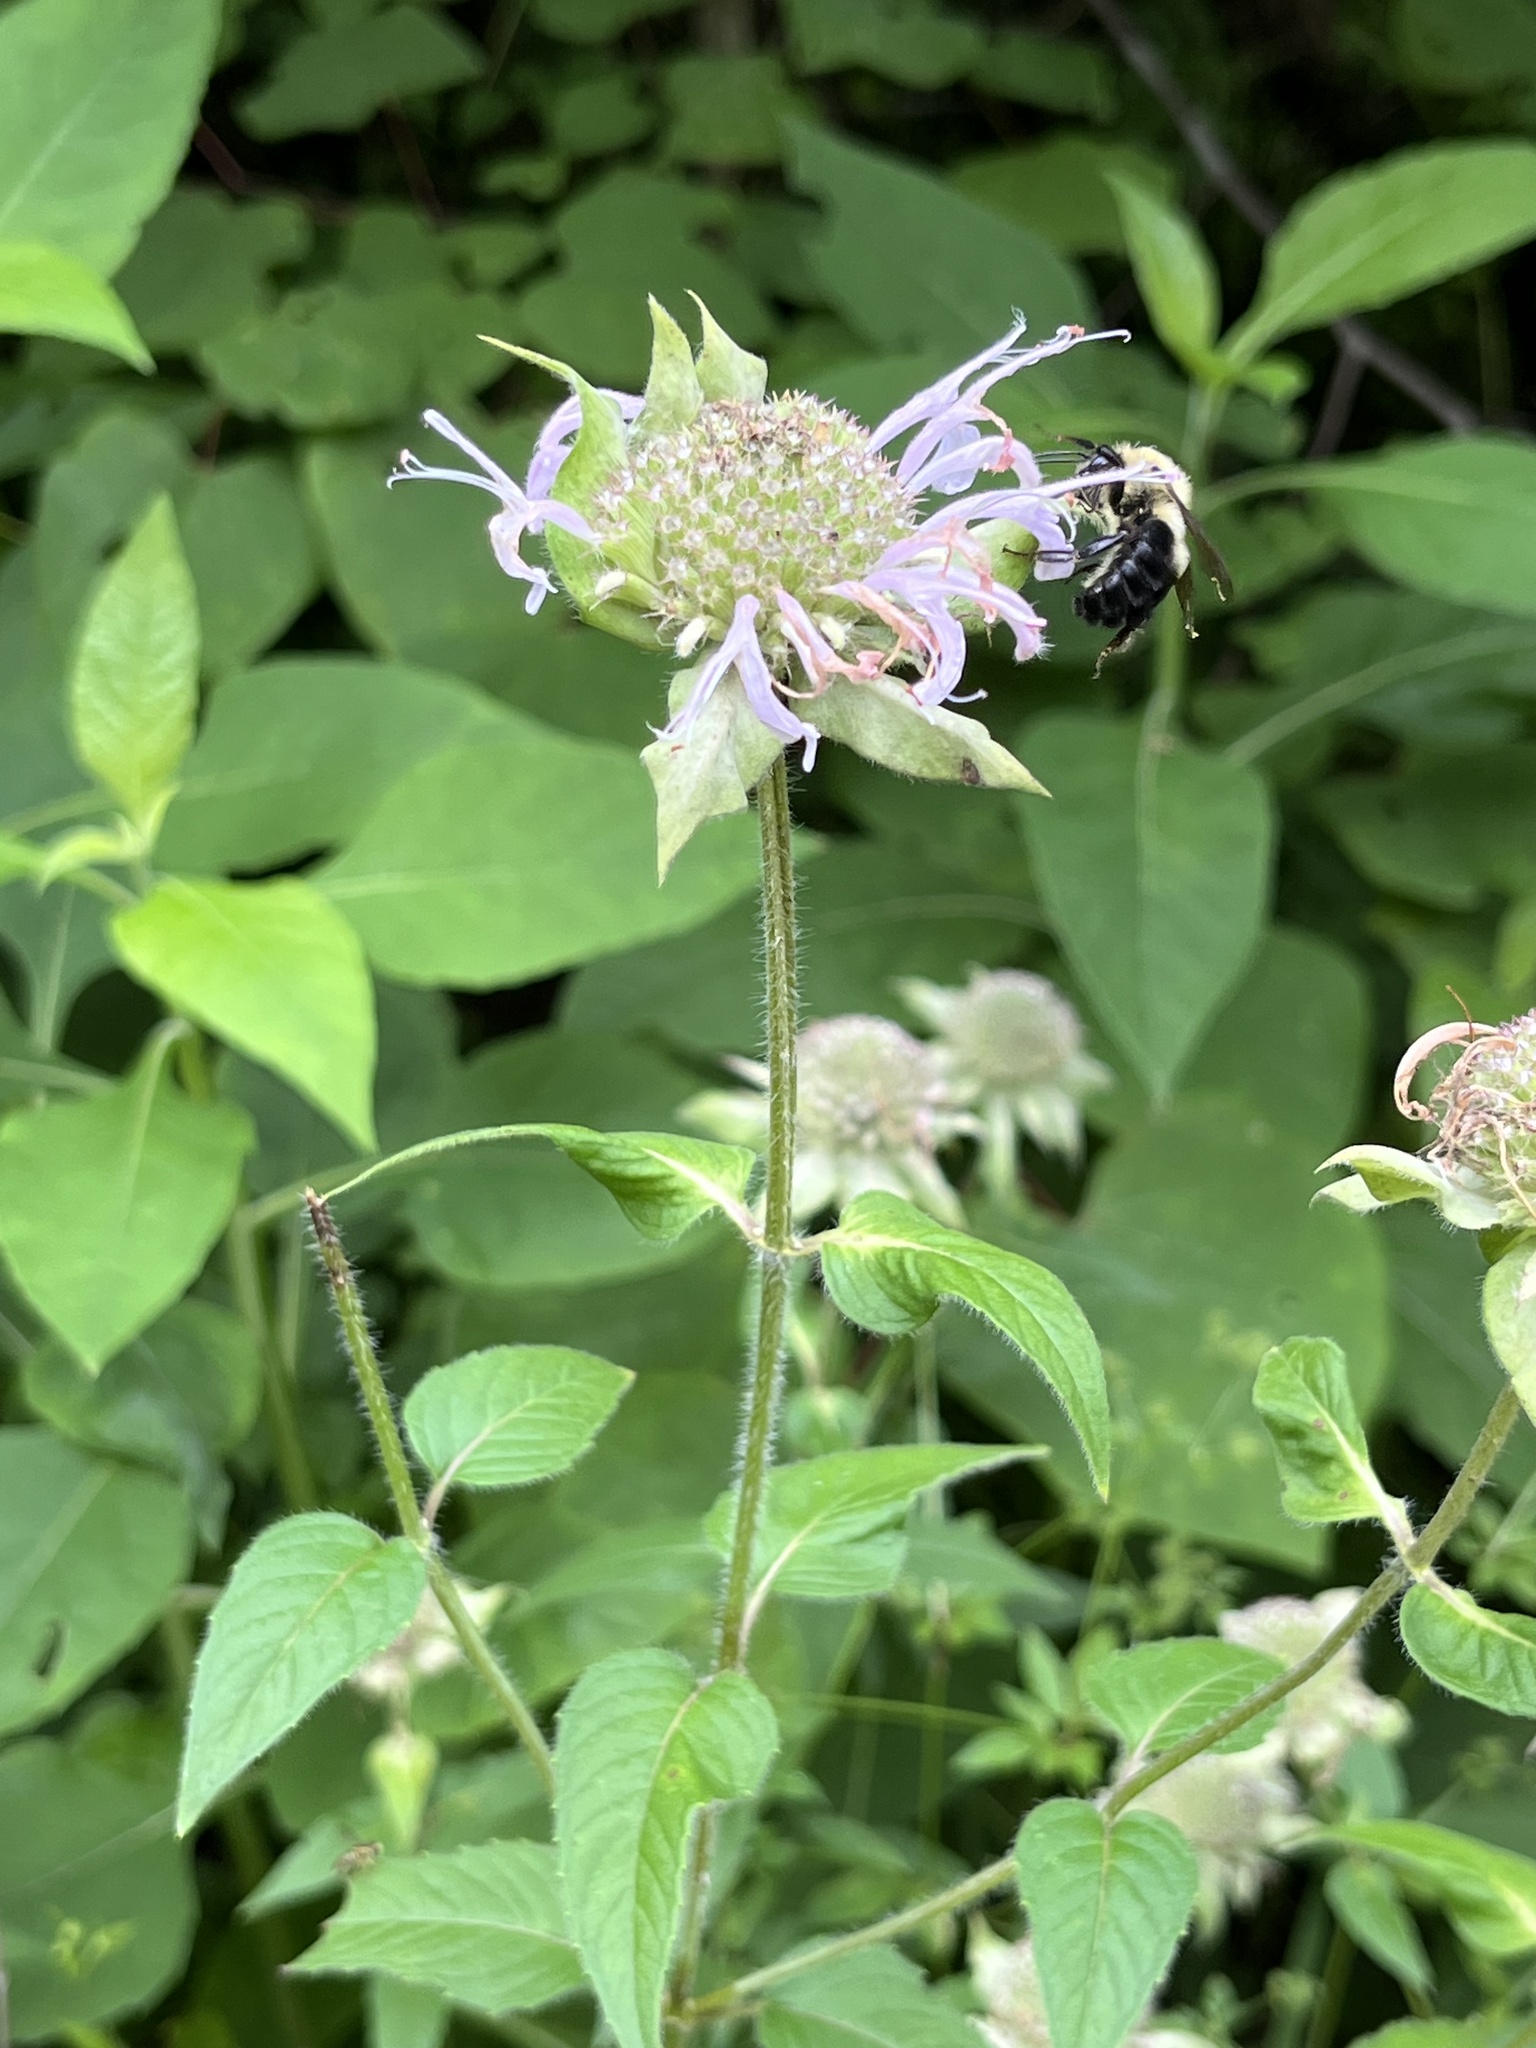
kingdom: Animalia
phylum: Arthropoda
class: Insecta
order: Hymenoptera
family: Apidae
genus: Bombus
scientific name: Bombus bimaculatus
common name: Two-spotted bumble bee
